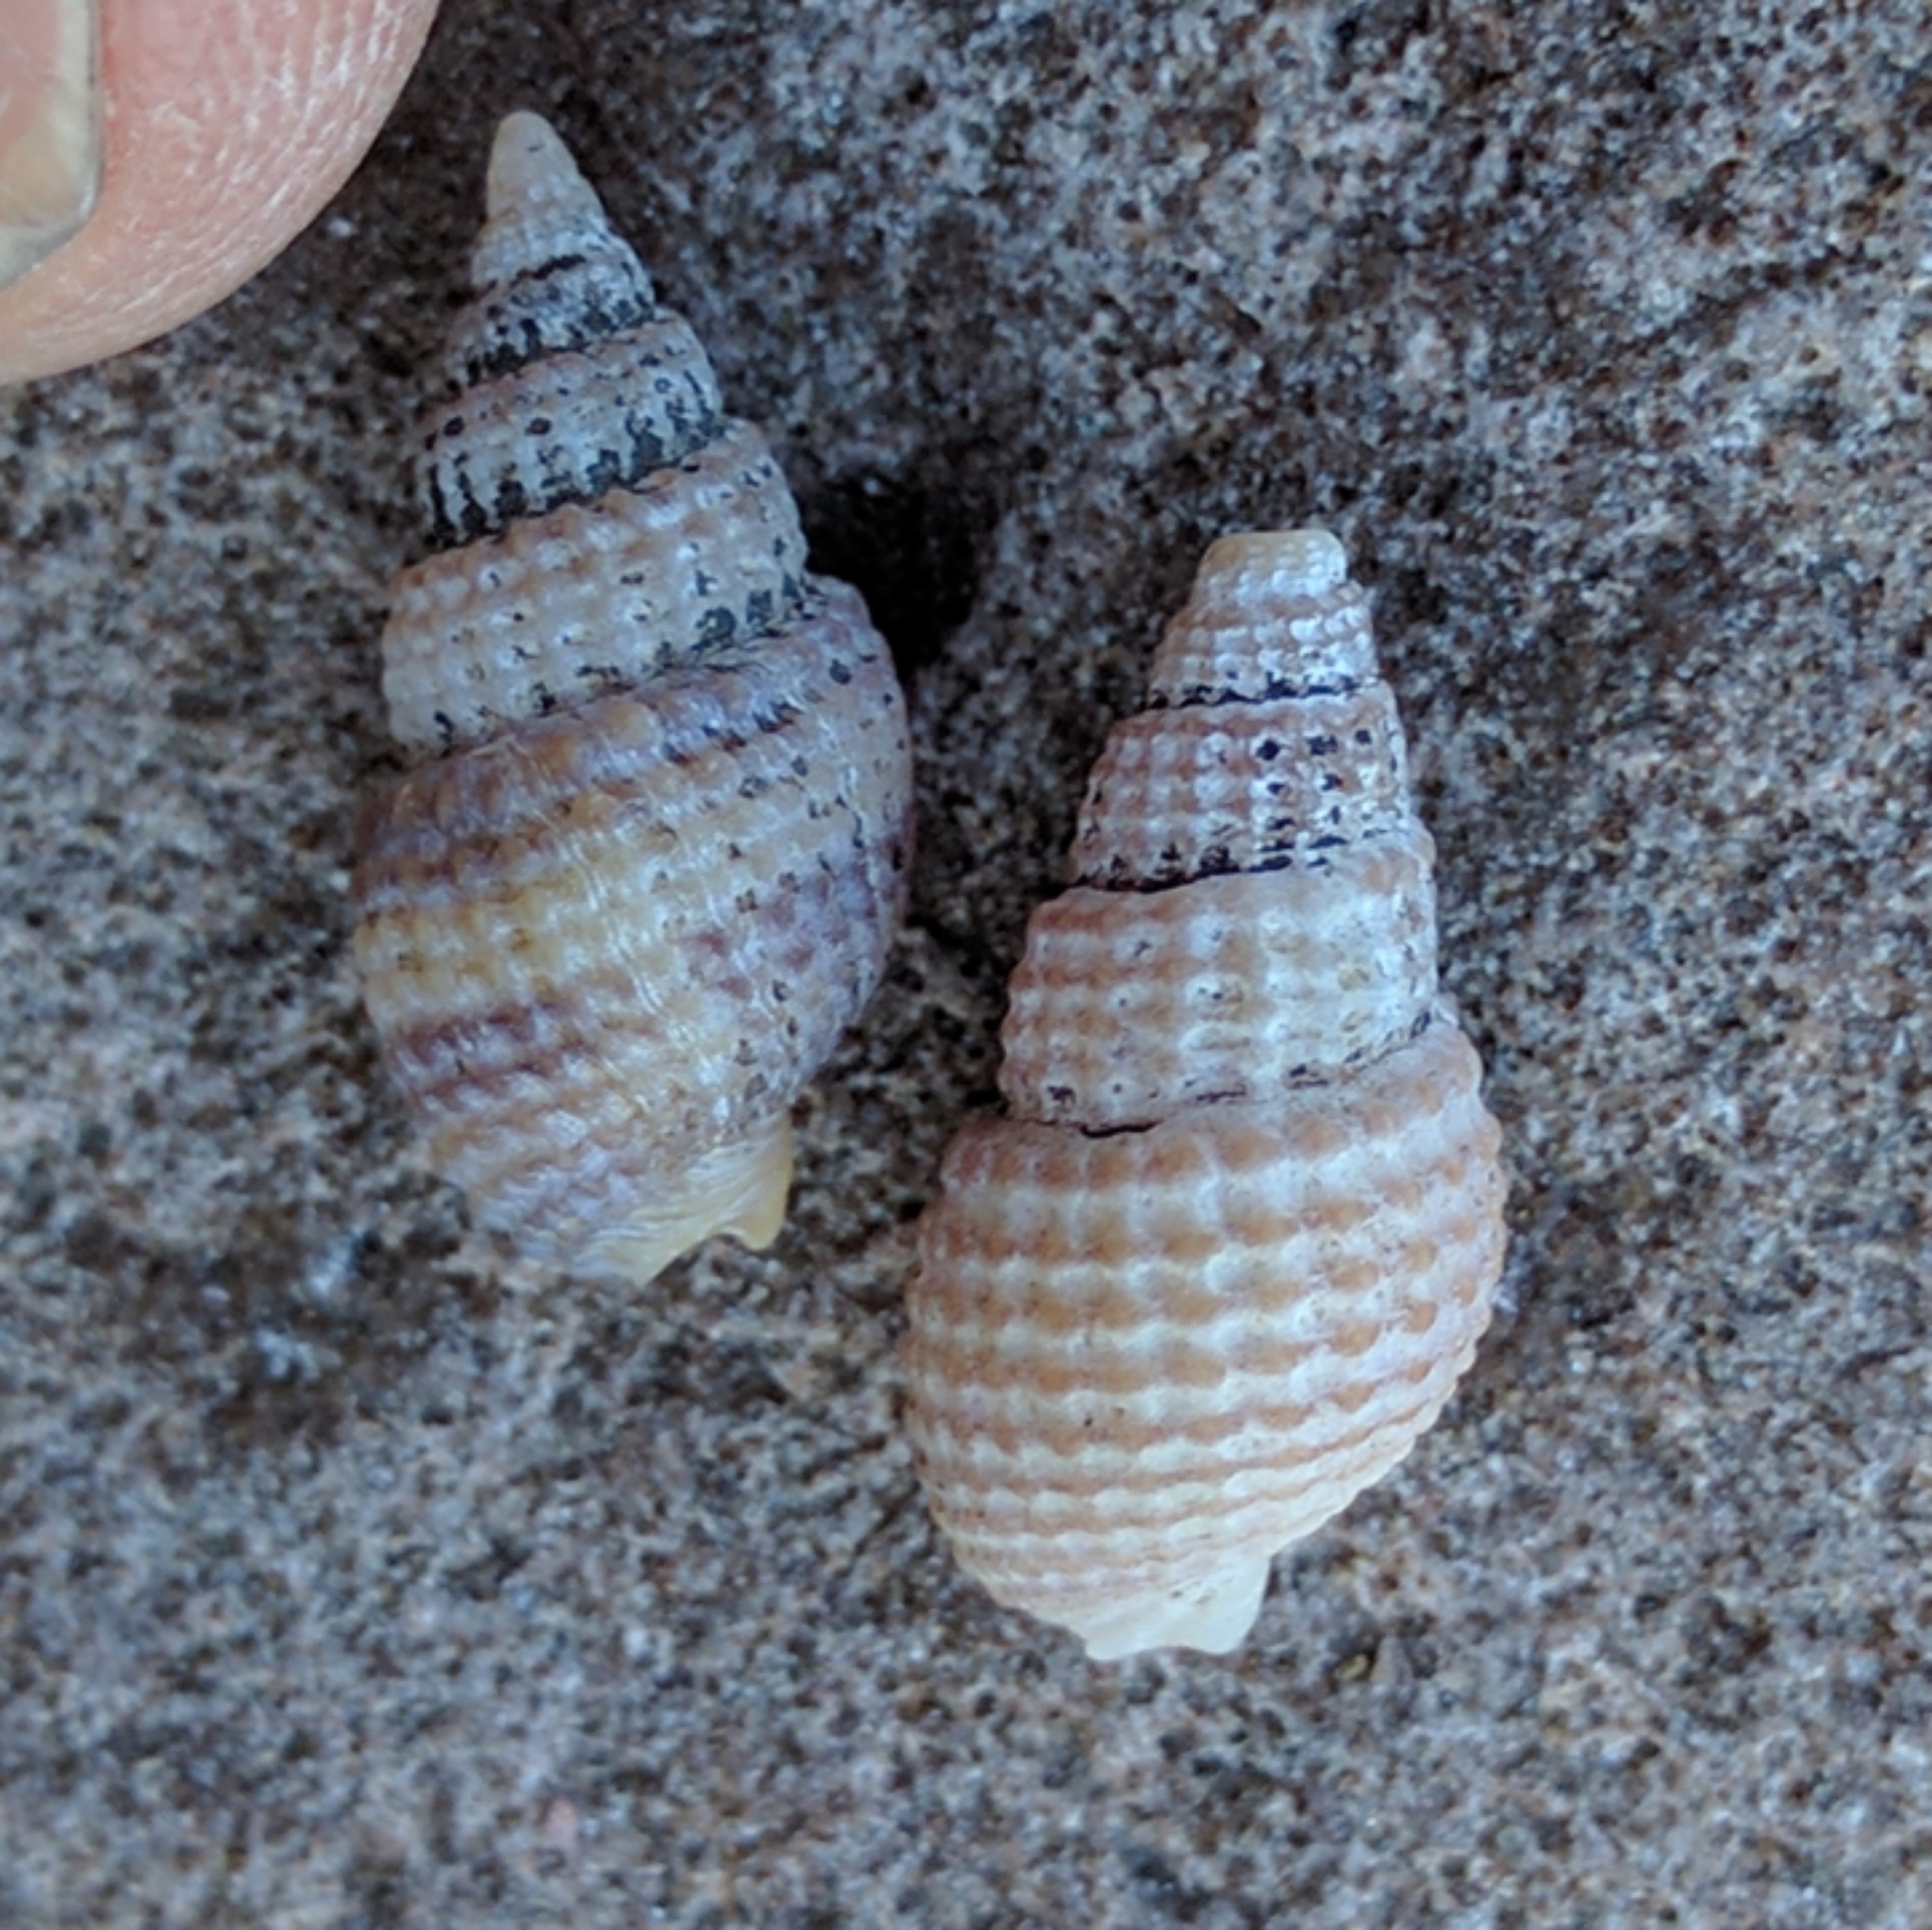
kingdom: Animalia
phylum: Mollusca
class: Gastropoda
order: Neogastropoda
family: Nassariidae
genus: Ilyanassa
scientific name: Ilyanassa trivittata
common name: Three-line mudsnail
